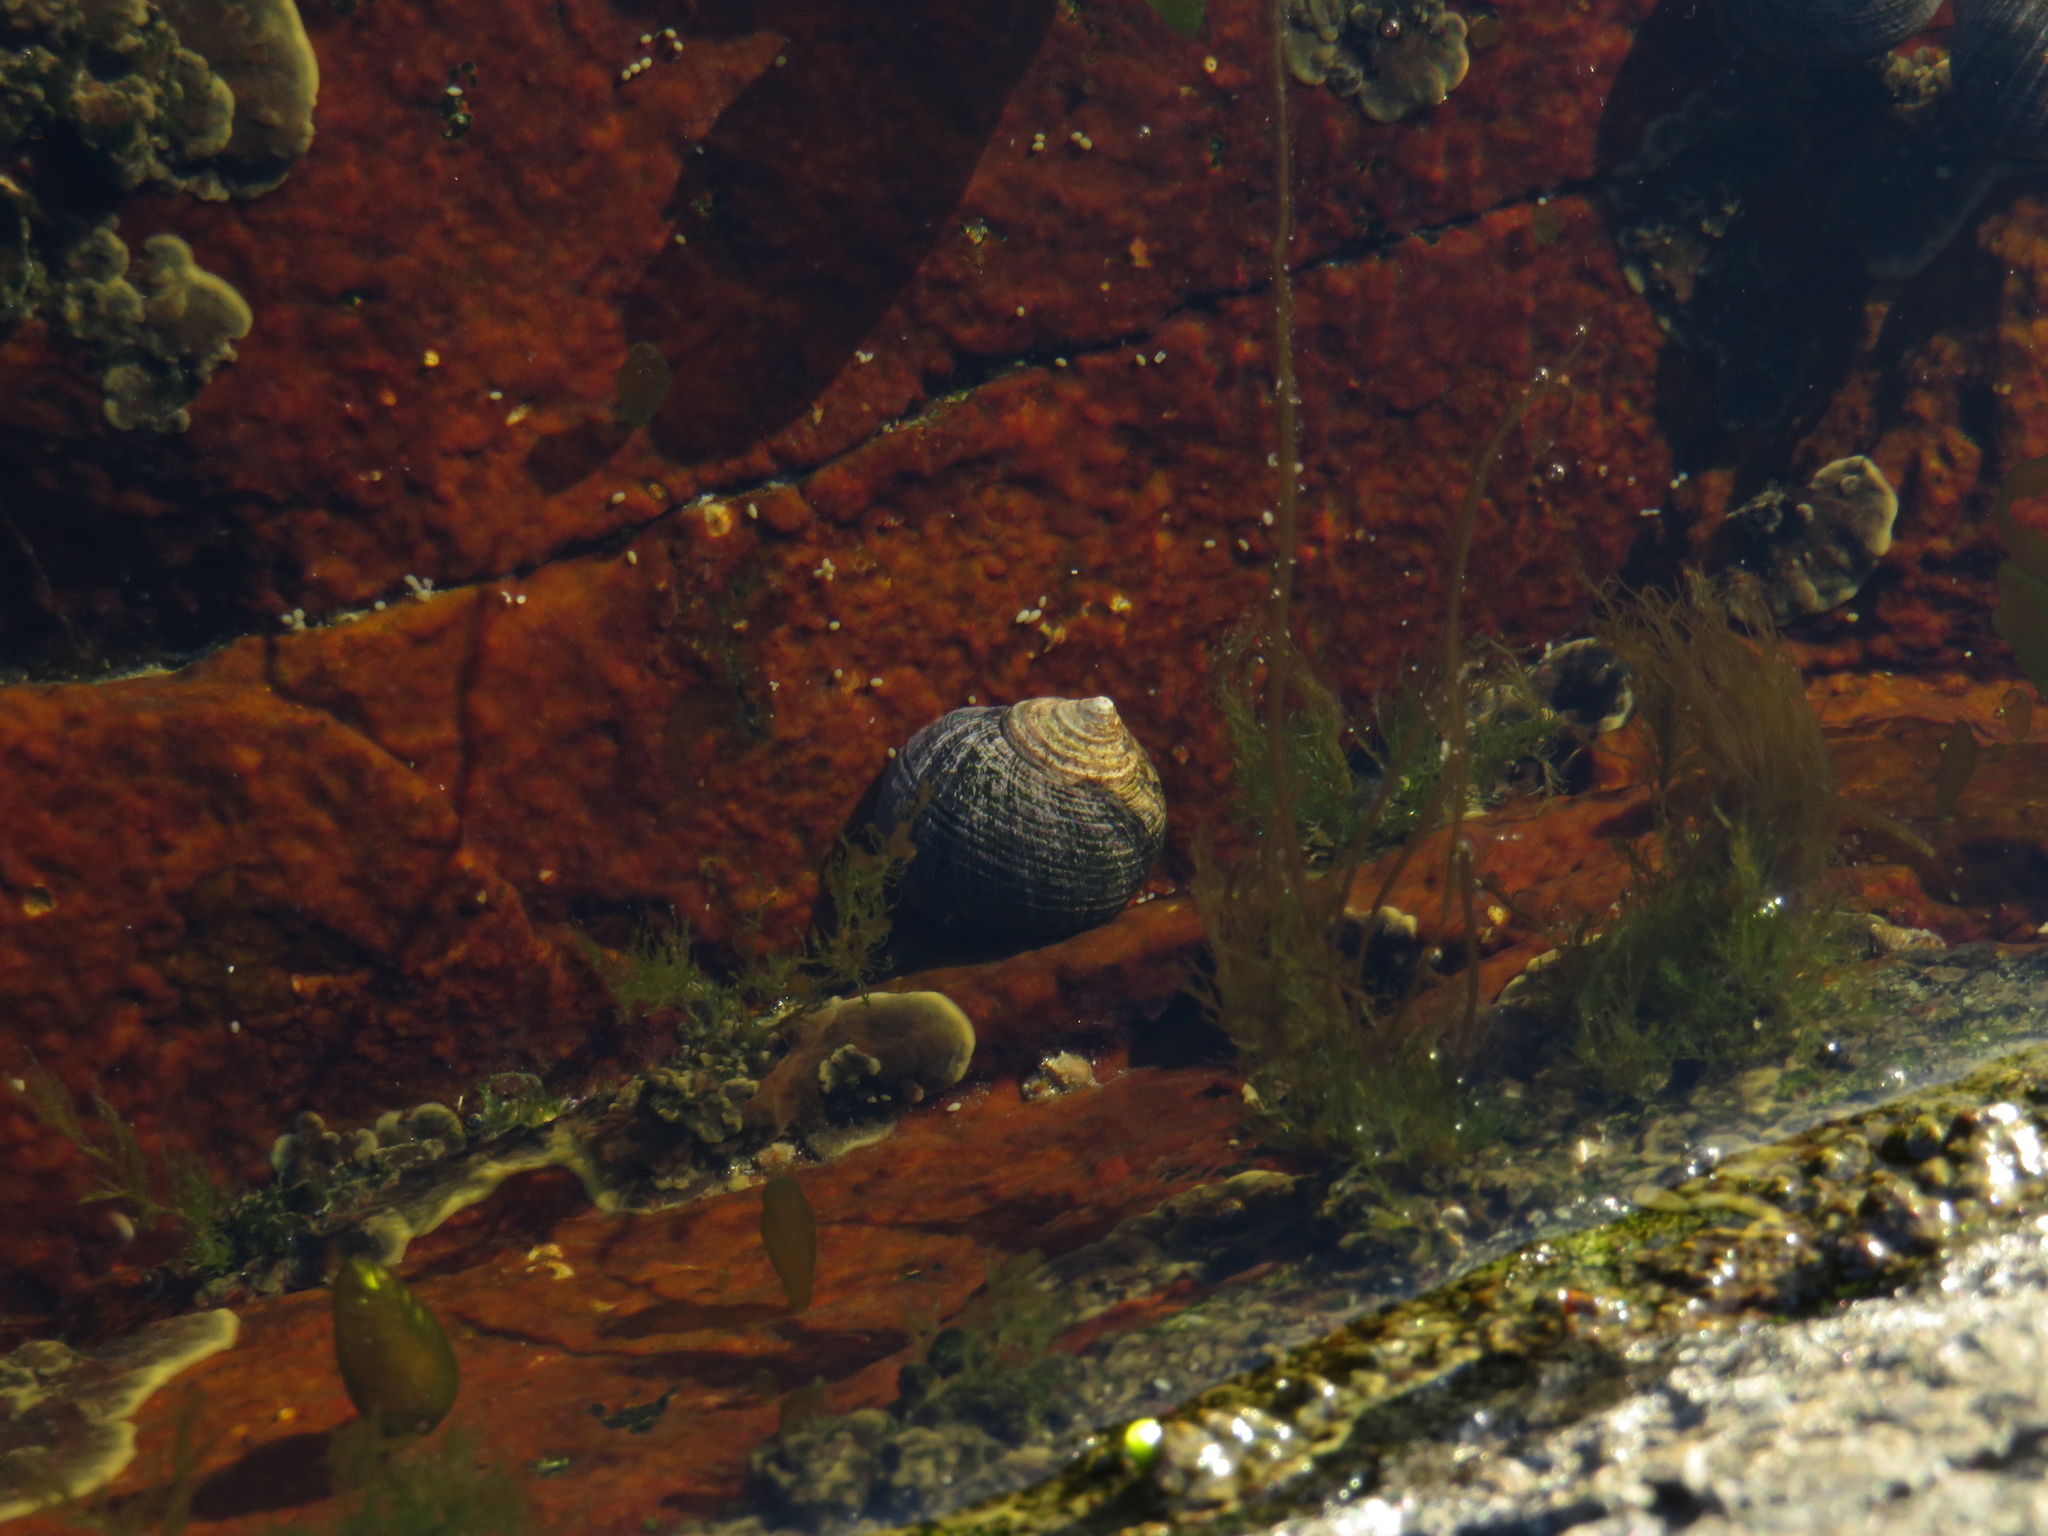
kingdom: Animalia
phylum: Mollusca
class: Gastropoda
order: Littorinimorpha
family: Littorinidae
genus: Littorina
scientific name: Littorina littorea
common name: Common periwinkle
